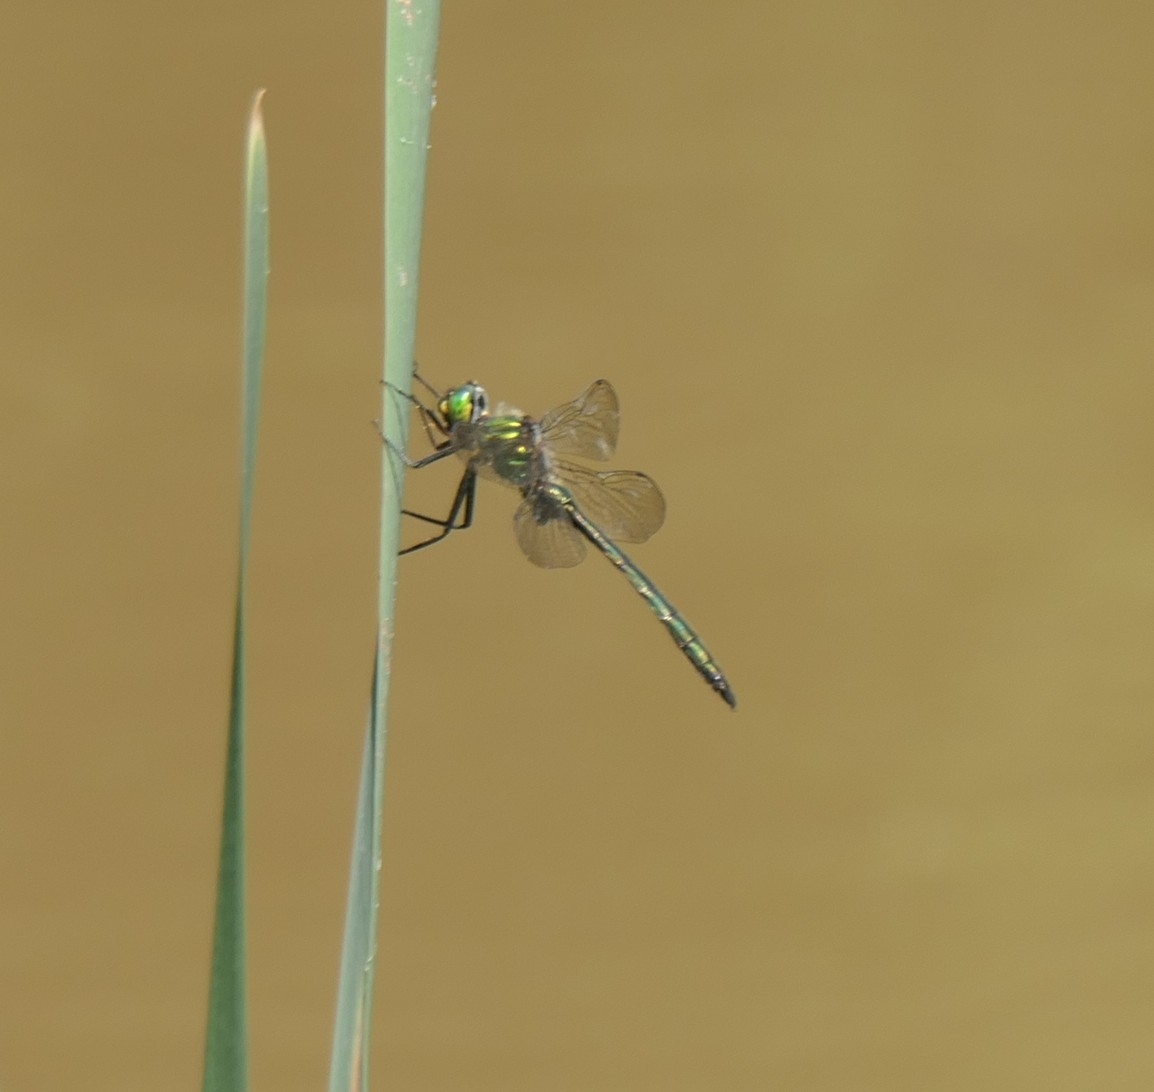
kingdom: Animalia
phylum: Arthropoda
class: Insecta
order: Odonata
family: Corduliidae
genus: Somatochlora
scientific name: Somatochlora metallica
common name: Brilliant emerald
